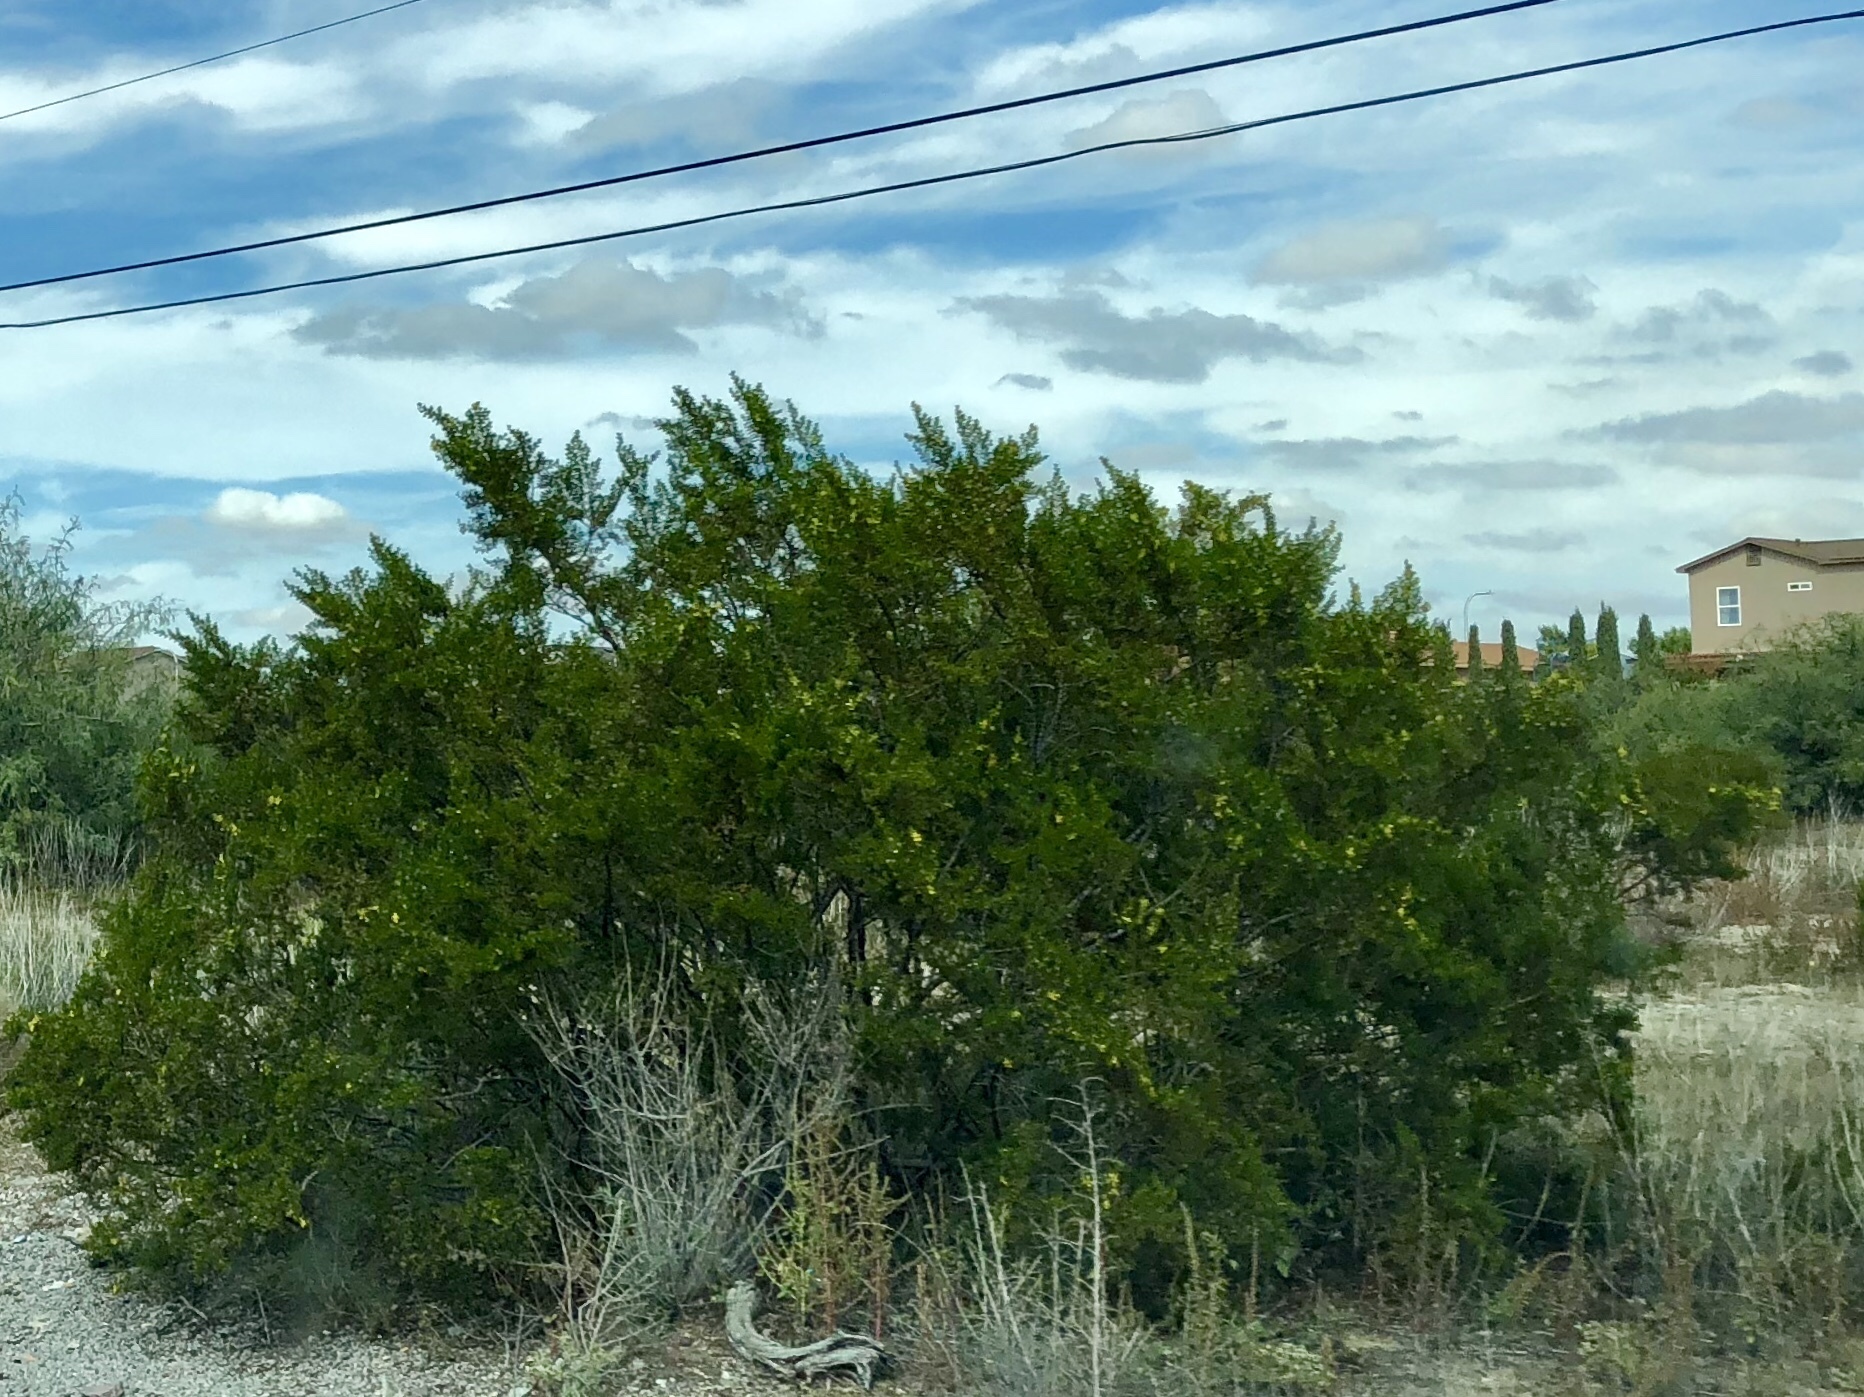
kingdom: Plantae
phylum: Tracheophyta
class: Magnoliopsida
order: Zygophyllales
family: Zygophyllaceae
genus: Larrea
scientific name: Larrea tridentata
